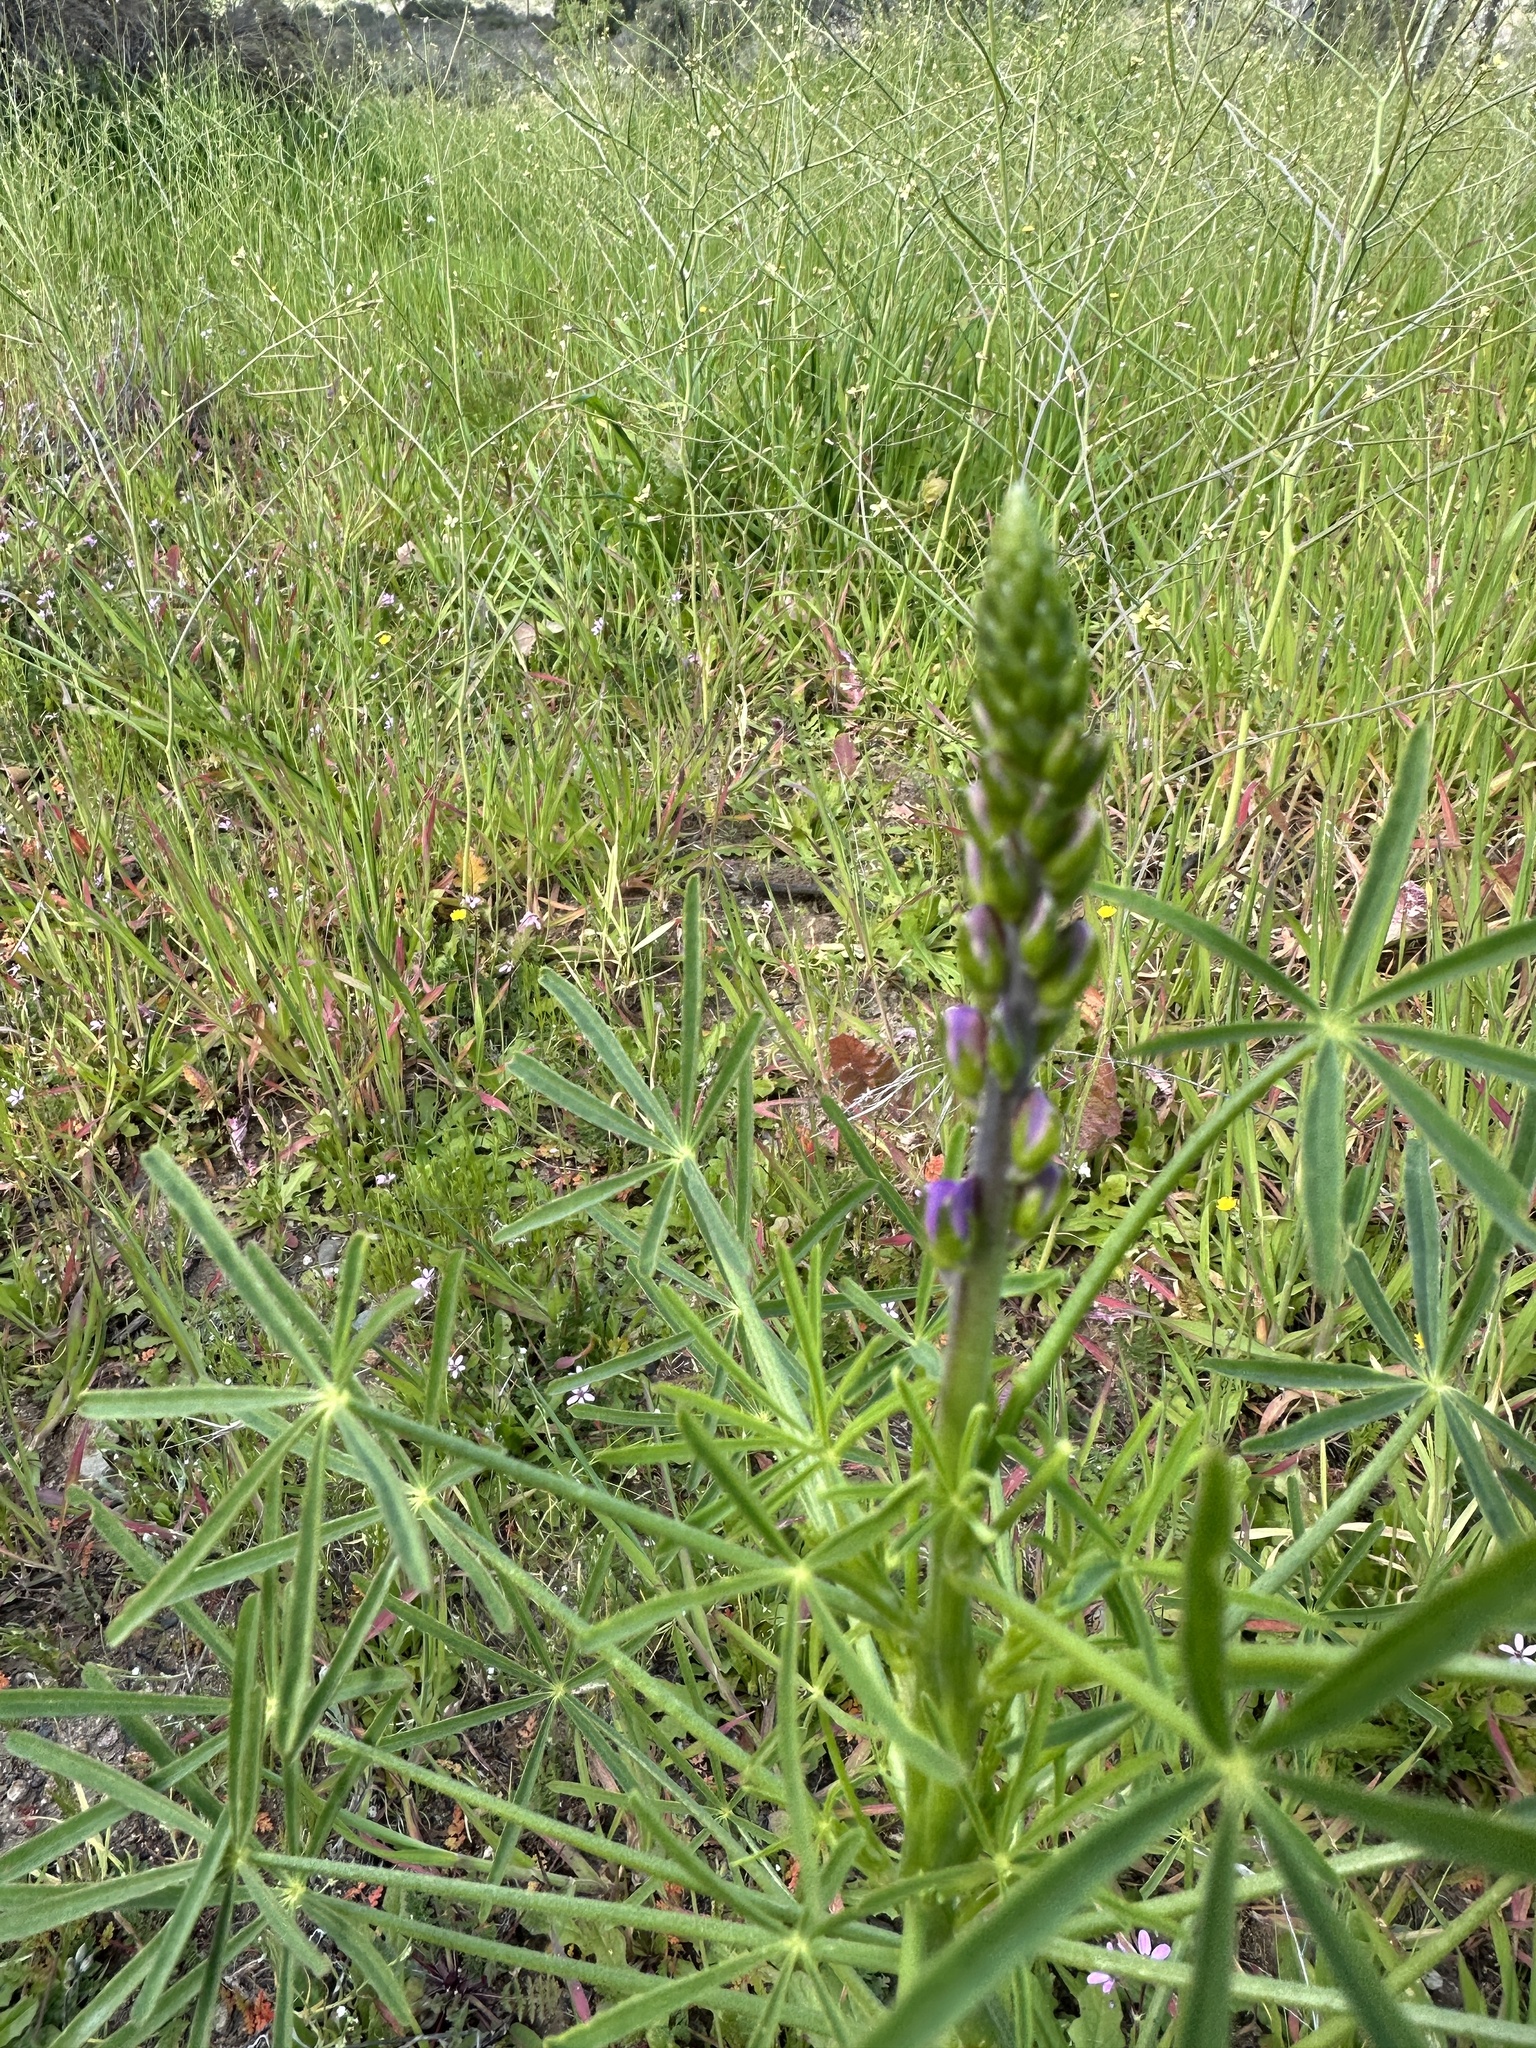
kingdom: Plantae
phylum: Tracheophyta
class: Magnoliopsida
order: Fabales
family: Fabaceae
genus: Lupinus
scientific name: Lupinus truncatus
